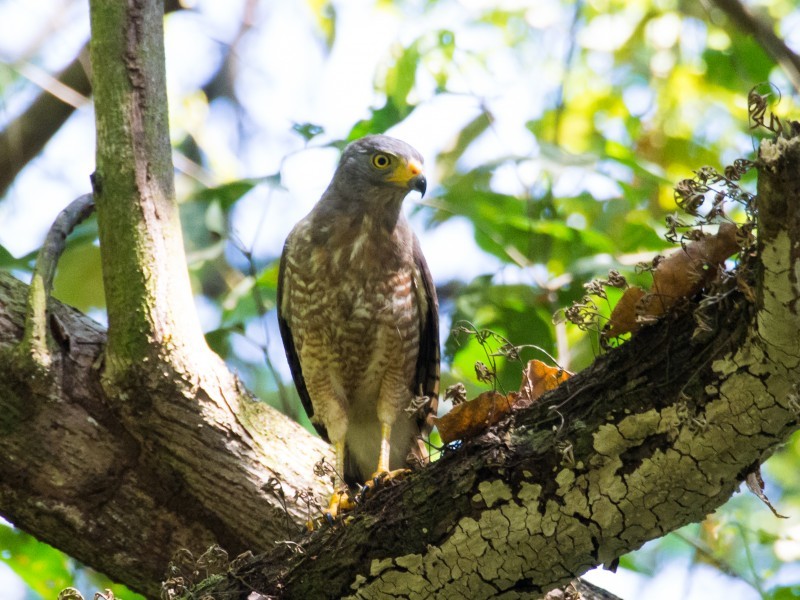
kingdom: Animalia
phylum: Chordata
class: Aves
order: Accipitriformes
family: Accipitridae
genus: Rupornis
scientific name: Rupornis magnirostris
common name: Roadside hawk
